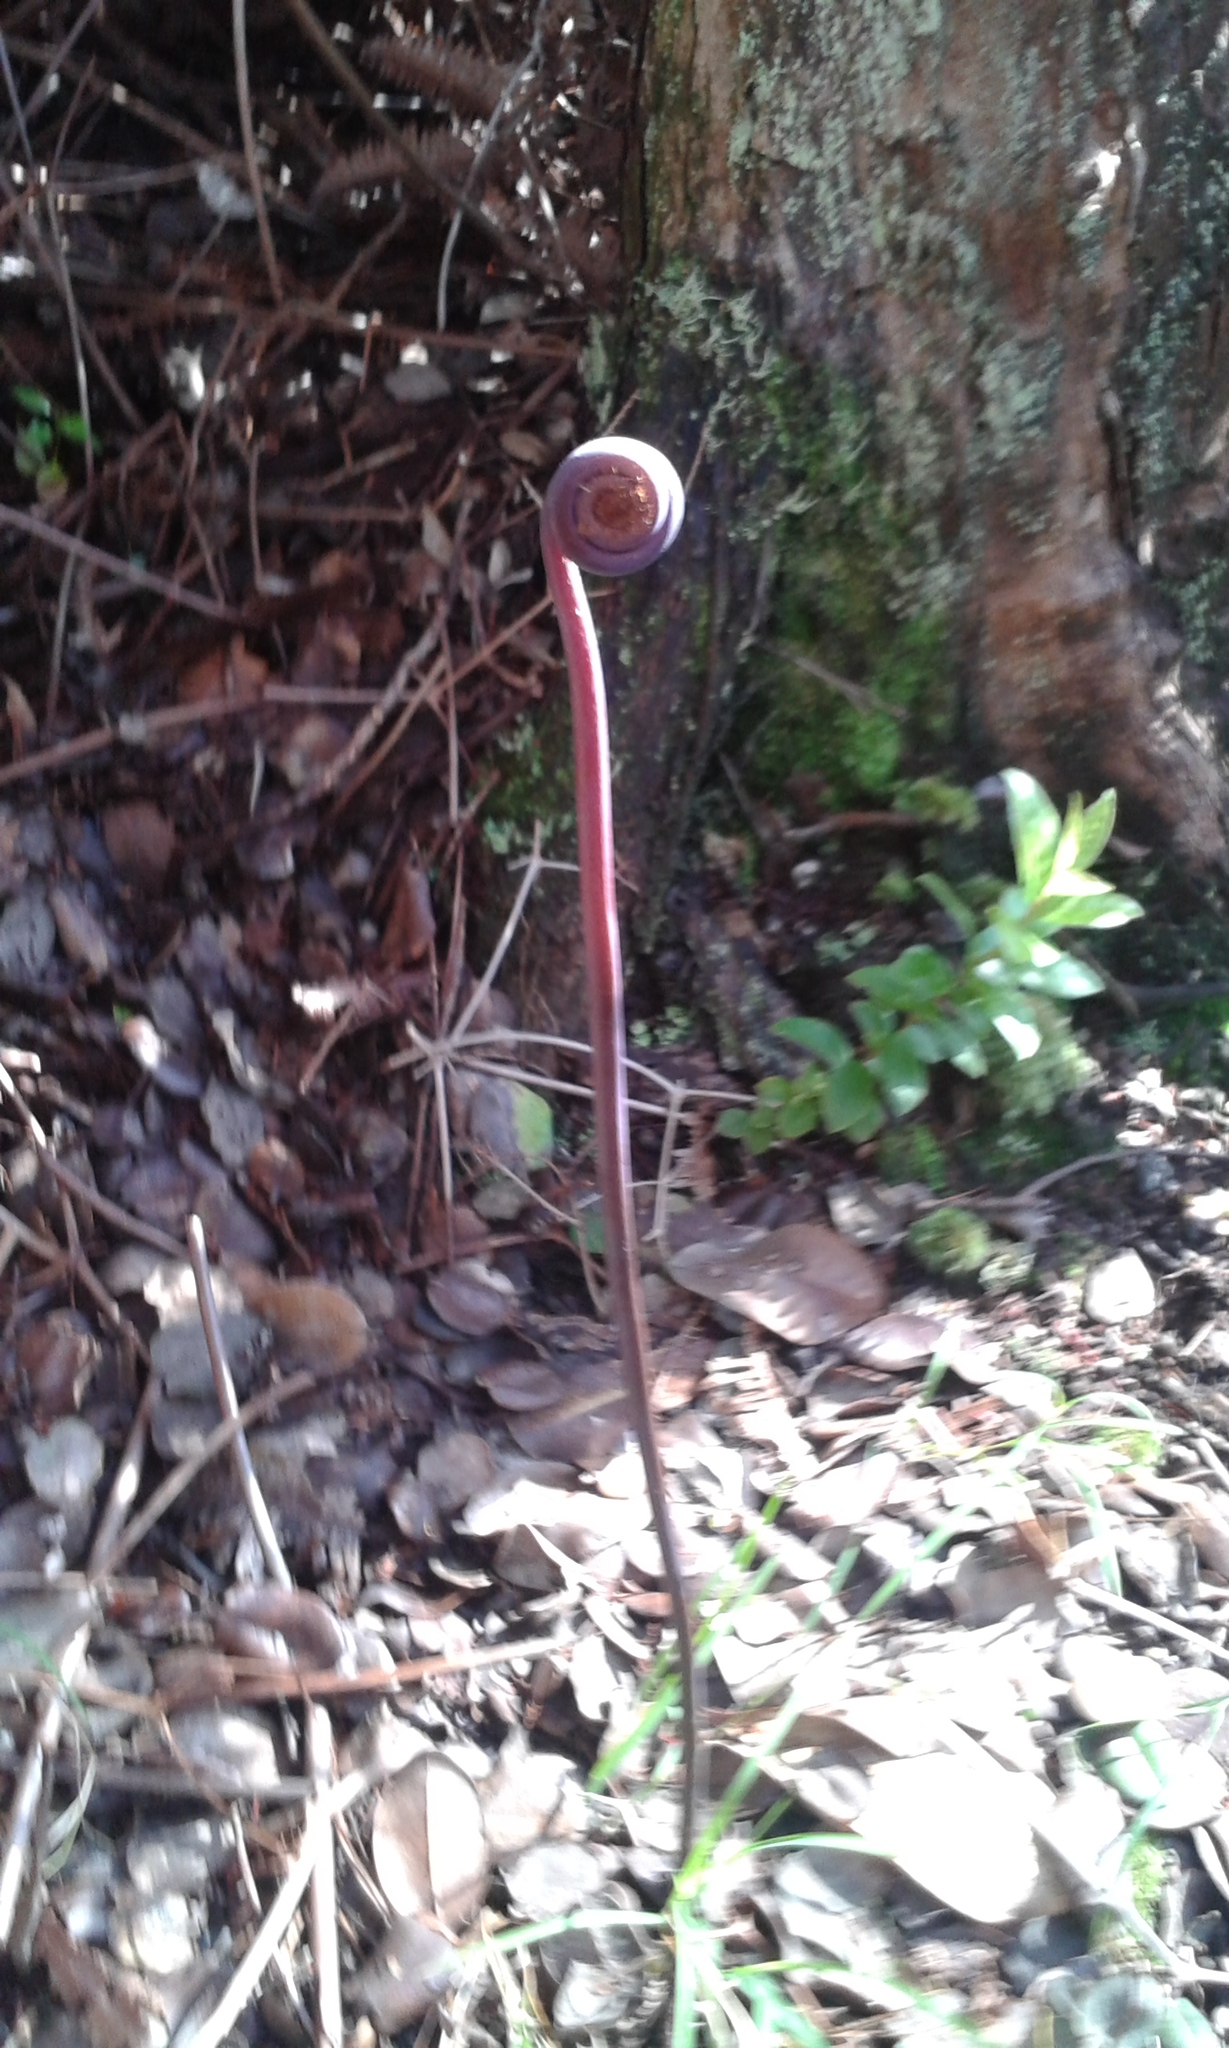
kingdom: Plantae
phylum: Tracheophyta
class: Polypodiopsida
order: Gleicheniales
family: Gleicheniaceae
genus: Dicranopteris
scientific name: Dicranopteris linearis
